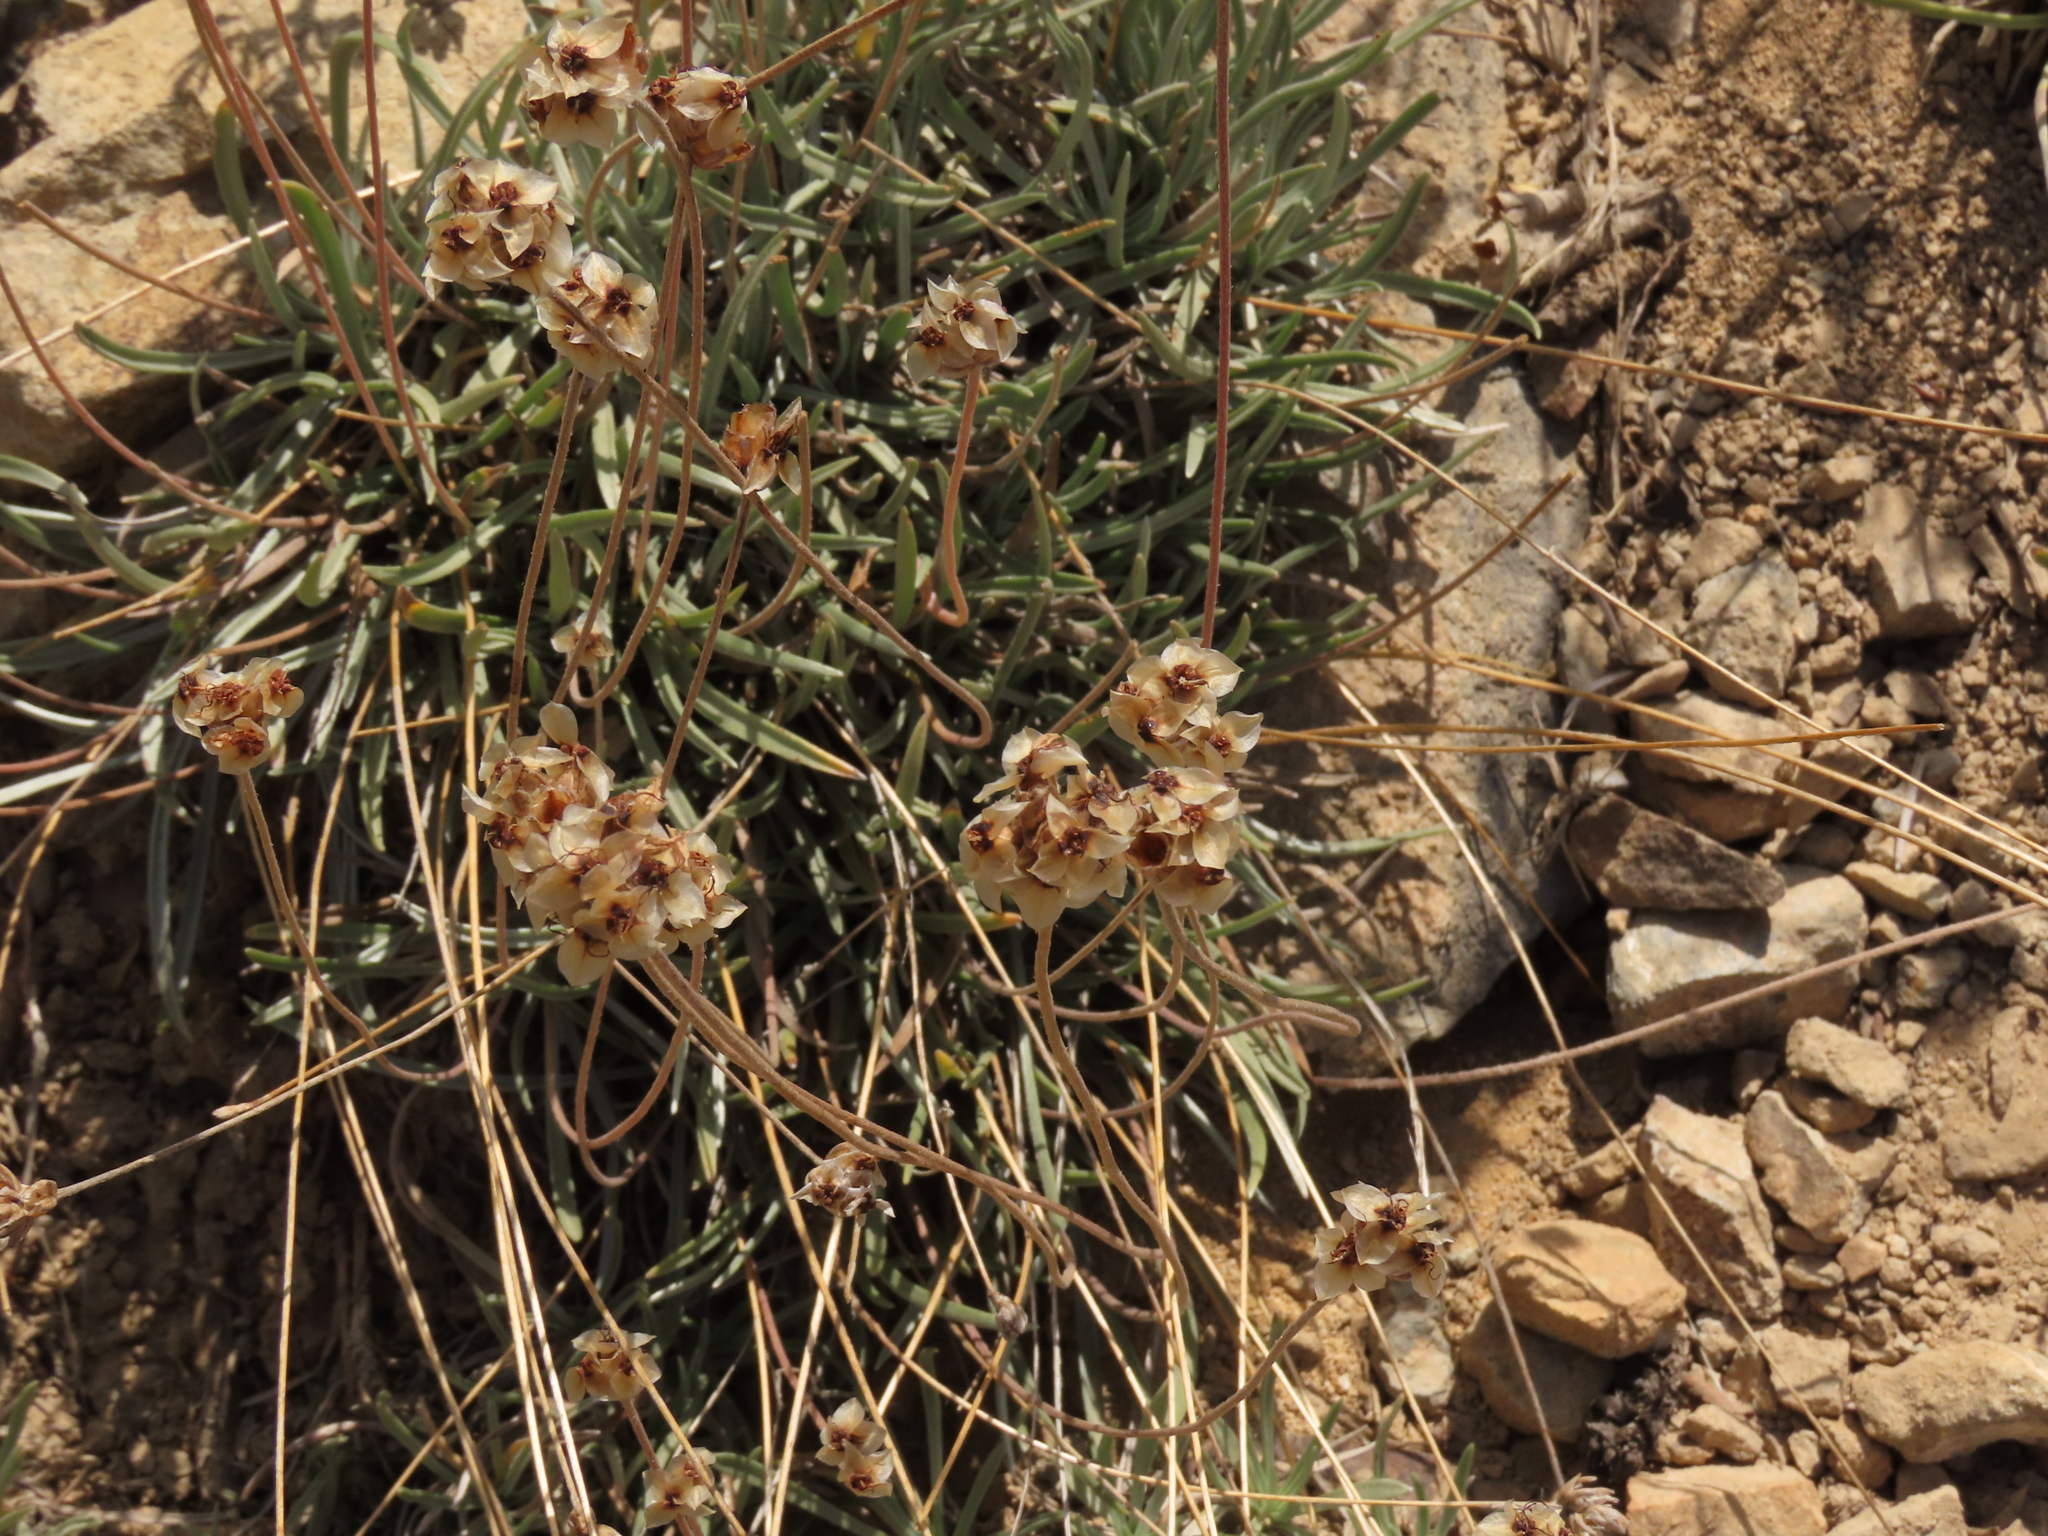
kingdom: Plantae
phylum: Tracheophyta
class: Magnoliopsida
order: Lamiales
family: Plantaginaceae
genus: Plantago
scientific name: Plantago grandiflora
